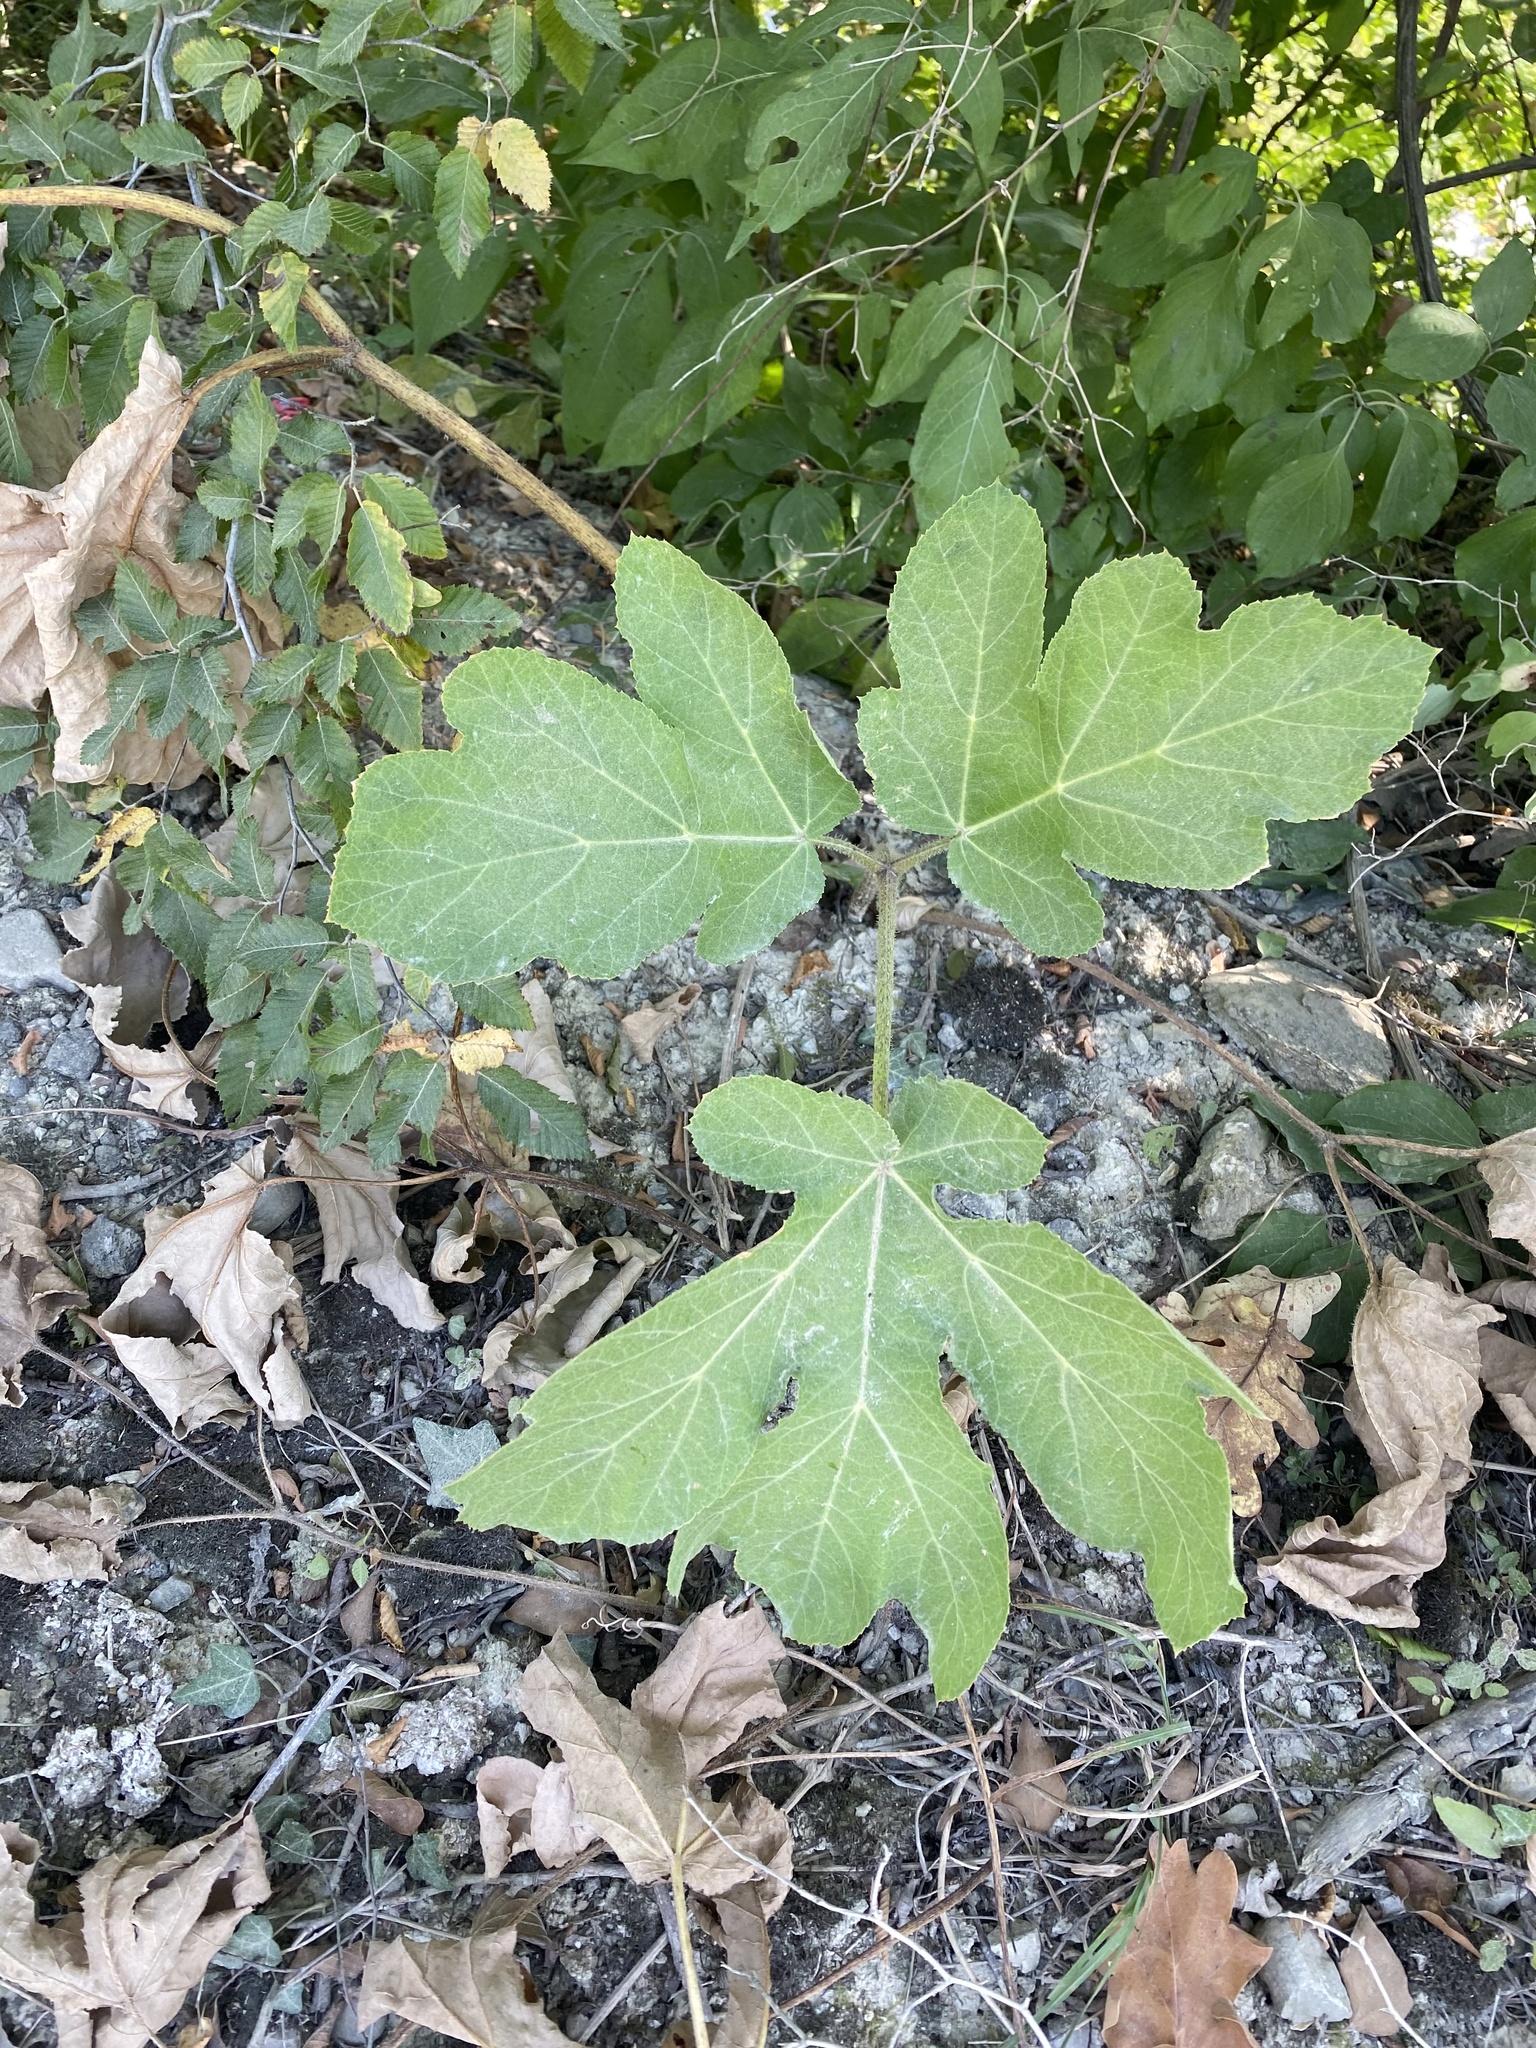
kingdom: Plantae
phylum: Tracheophyta
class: Magnoliopsida
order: Rosales
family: Moraceae
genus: Ficus
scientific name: Ficus carica
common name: Fig
